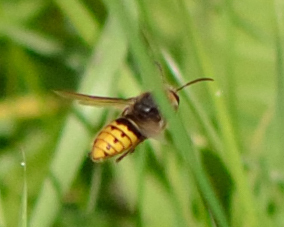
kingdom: Animalia
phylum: Arthropoda
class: Insecta
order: Hymenoptera
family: Vespidae
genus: Vespa
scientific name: Vespa crabro
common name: Hornet
